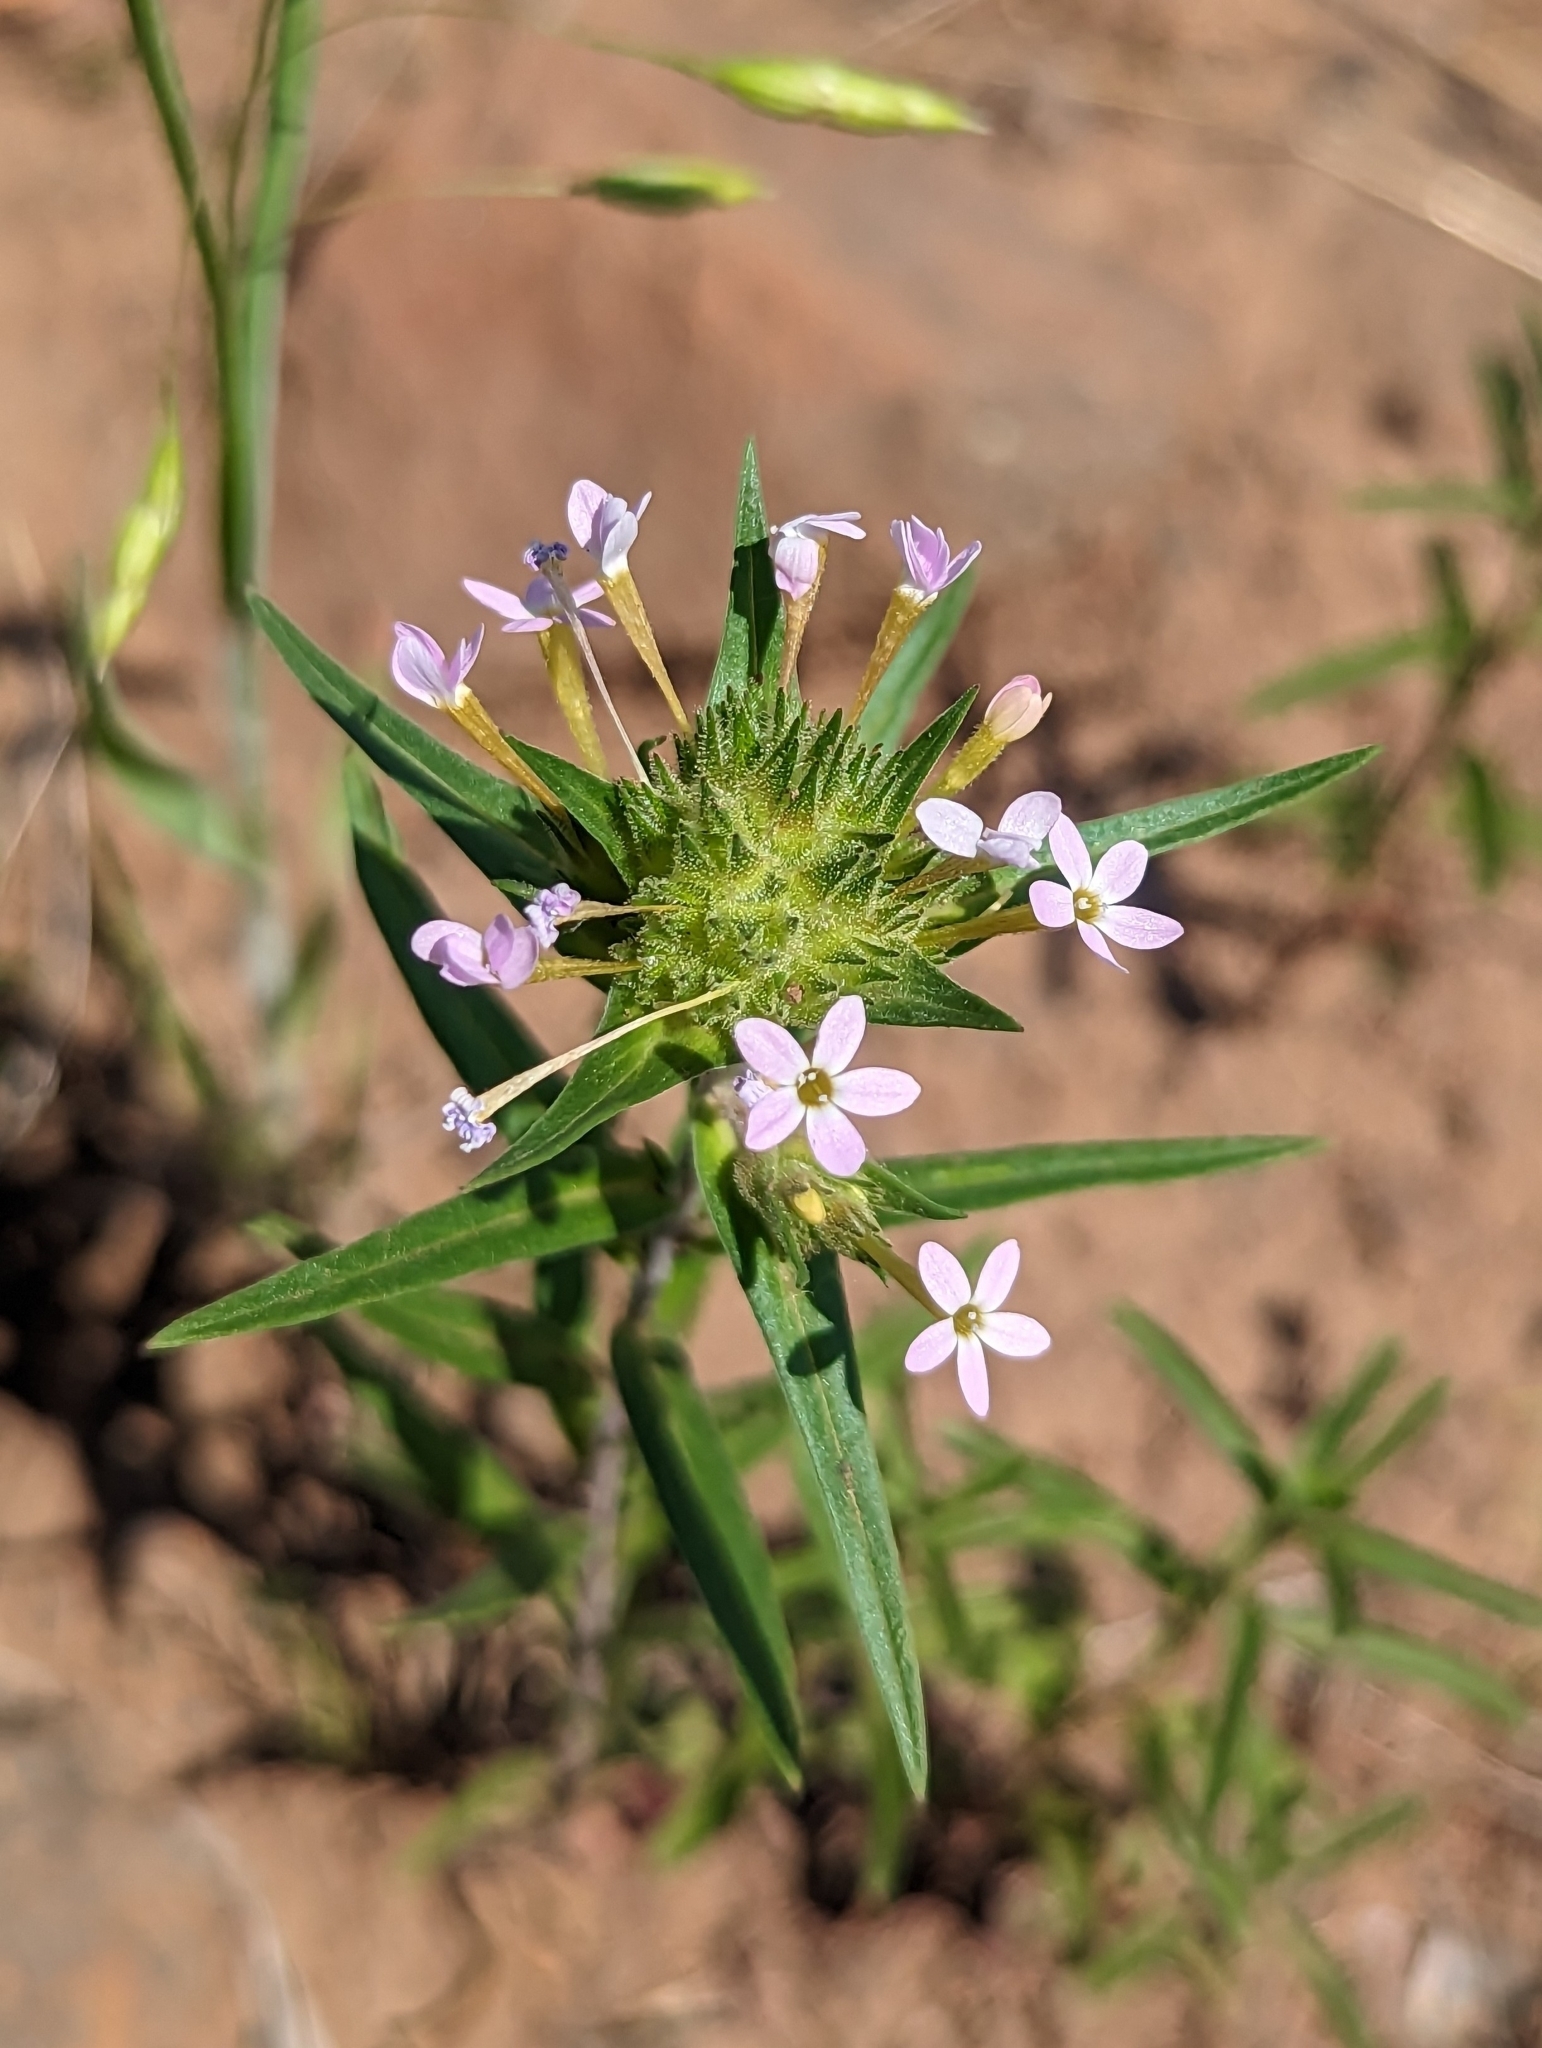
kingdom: Plantae
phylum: Tracheophyta
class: Magnoliopsida
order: Ericales
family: Polemoniaceae
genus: Collomia
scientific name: Collomia linearis
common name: Tiny trumpet
